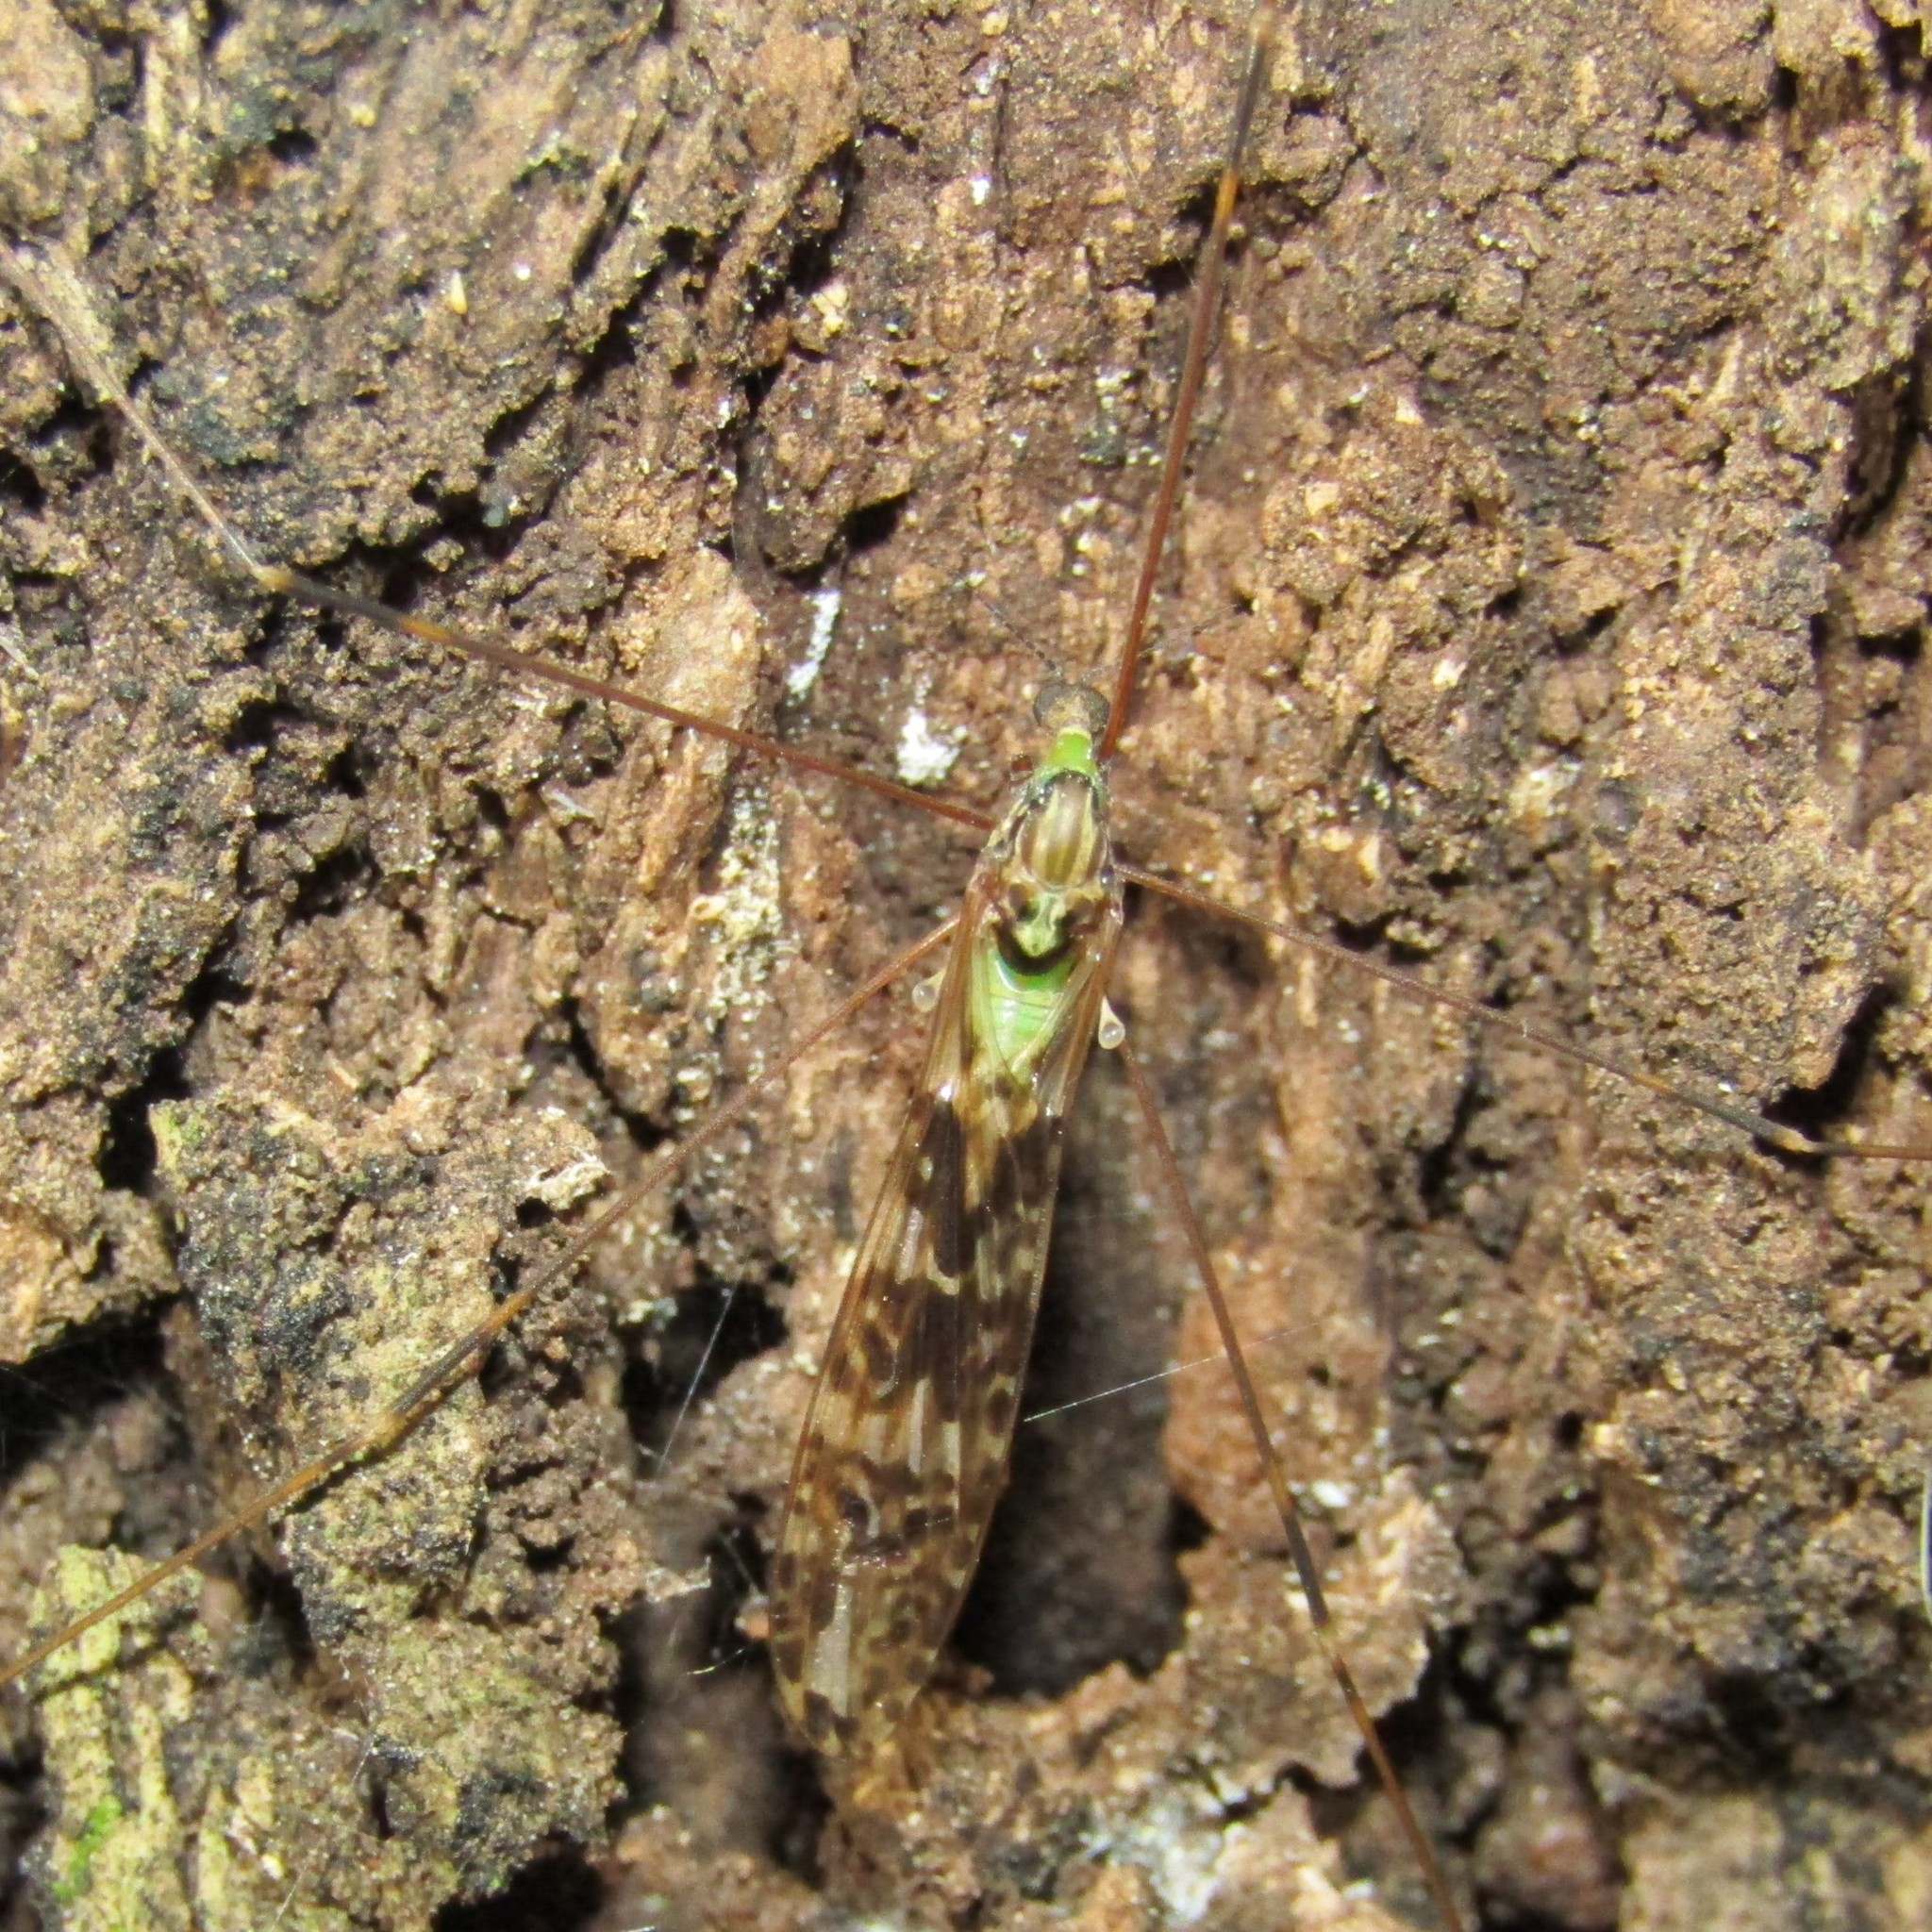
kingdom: Animalia
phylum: Arthropoda
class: Insecta
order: Diptera
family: Limoniidae
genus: Discobola
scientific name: Discobola dohrni
